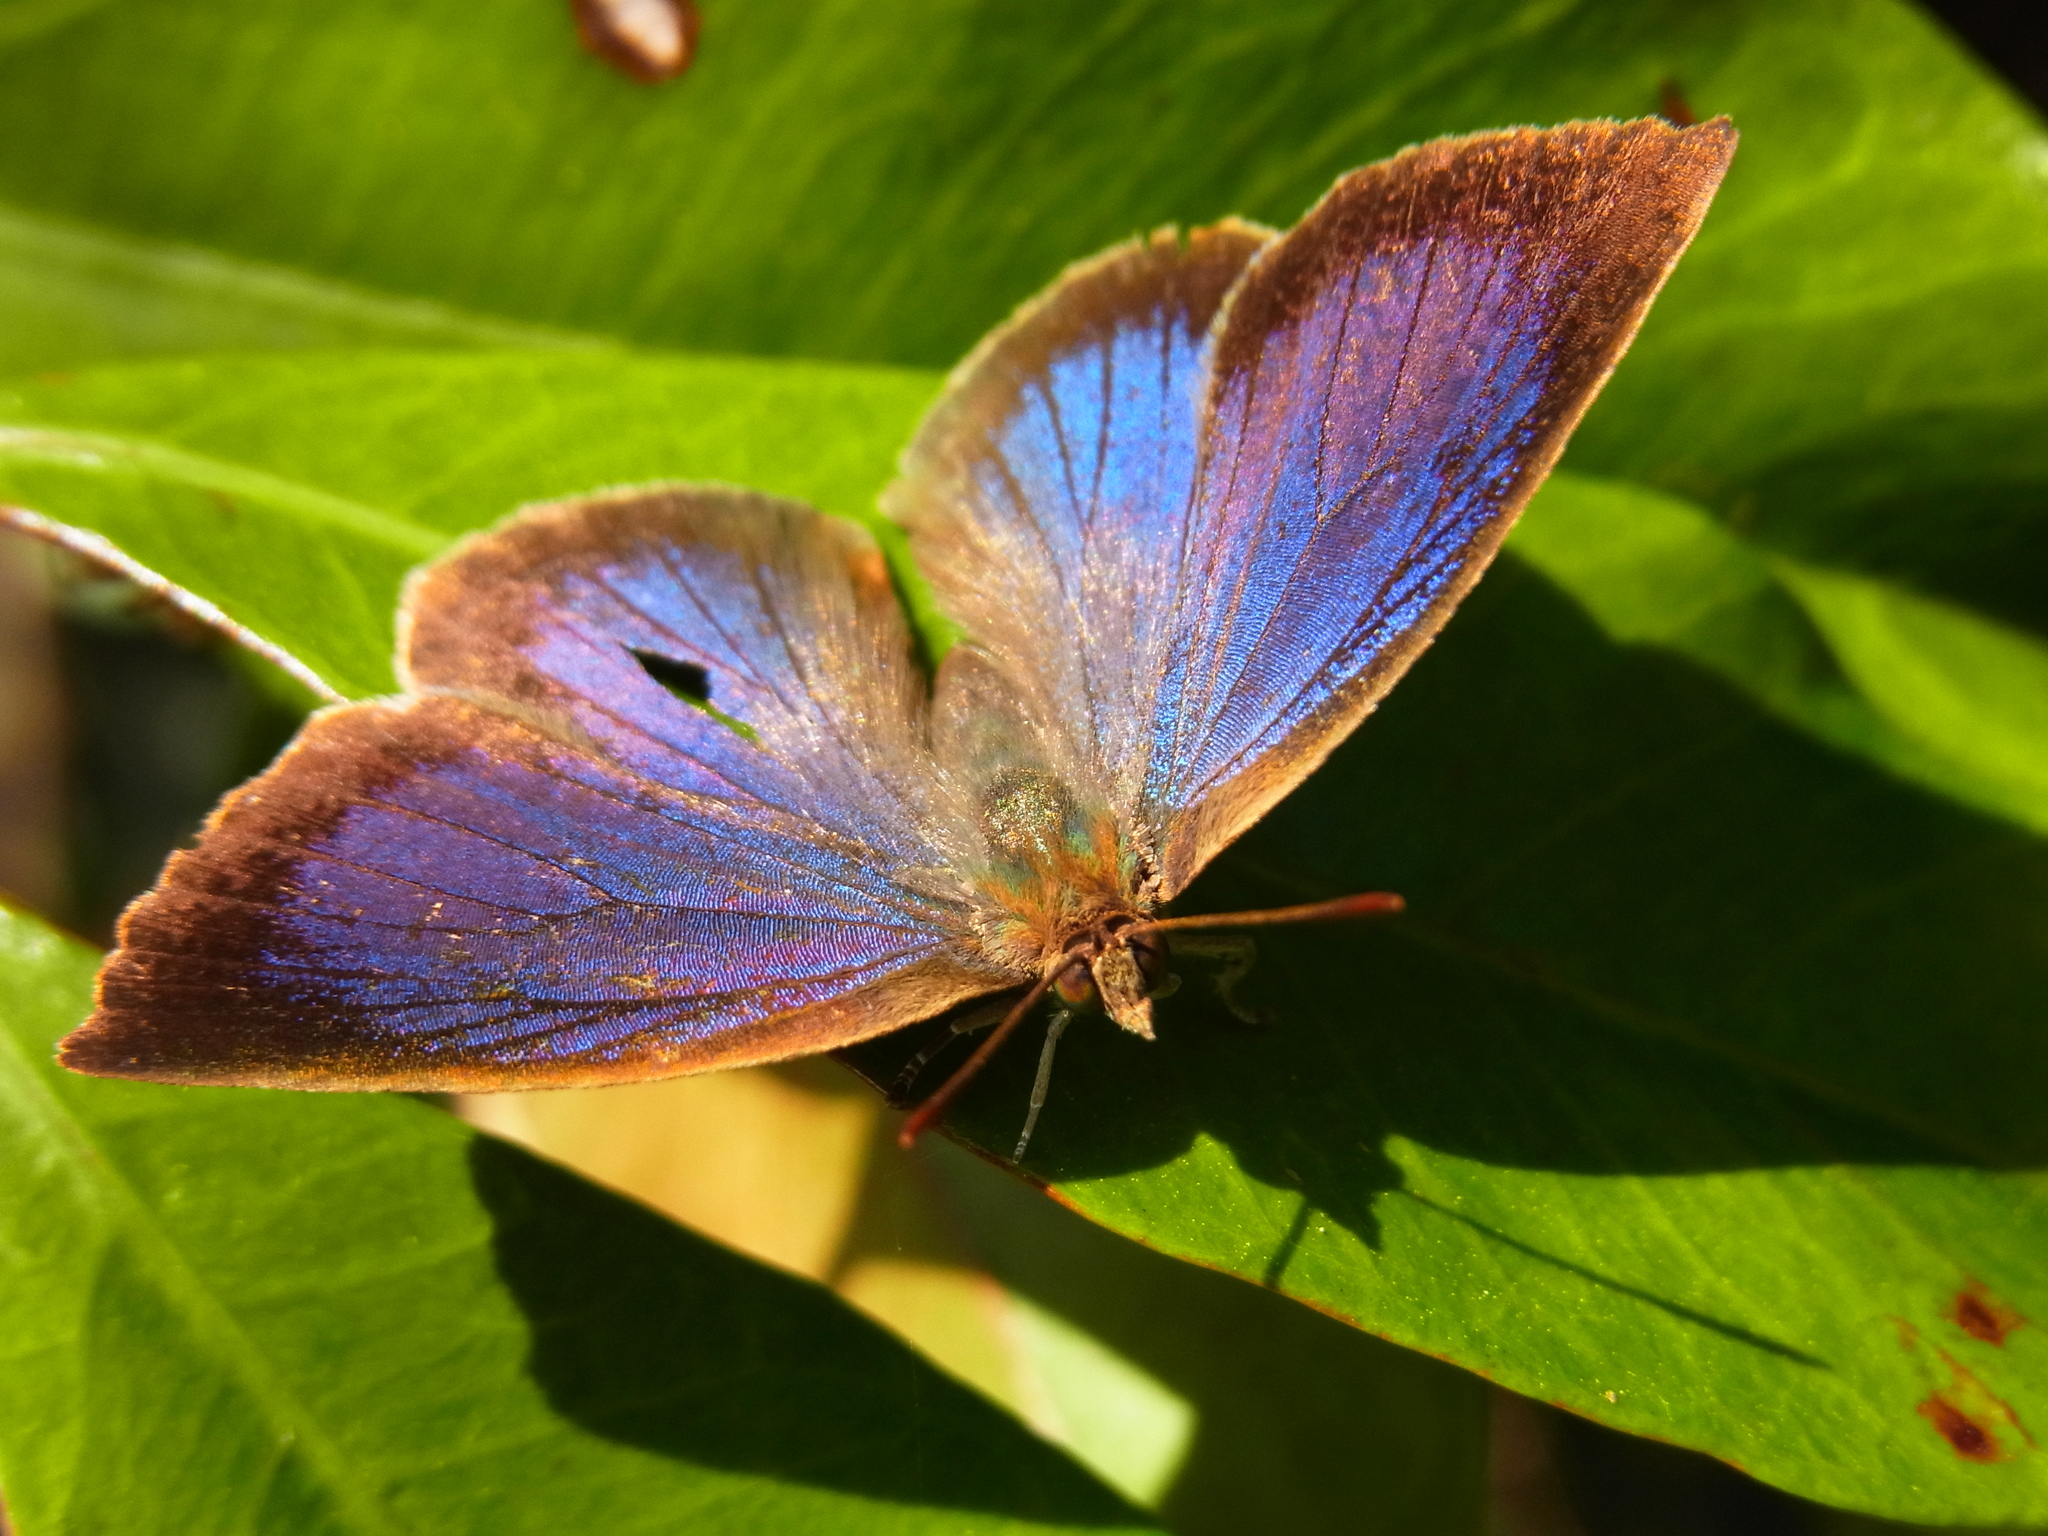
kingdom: Animalia
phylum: Arthropoda
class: Insecta
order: Lepidoptera
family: Lycaenidae
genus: Arhopala
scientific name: Arhopala japonica
